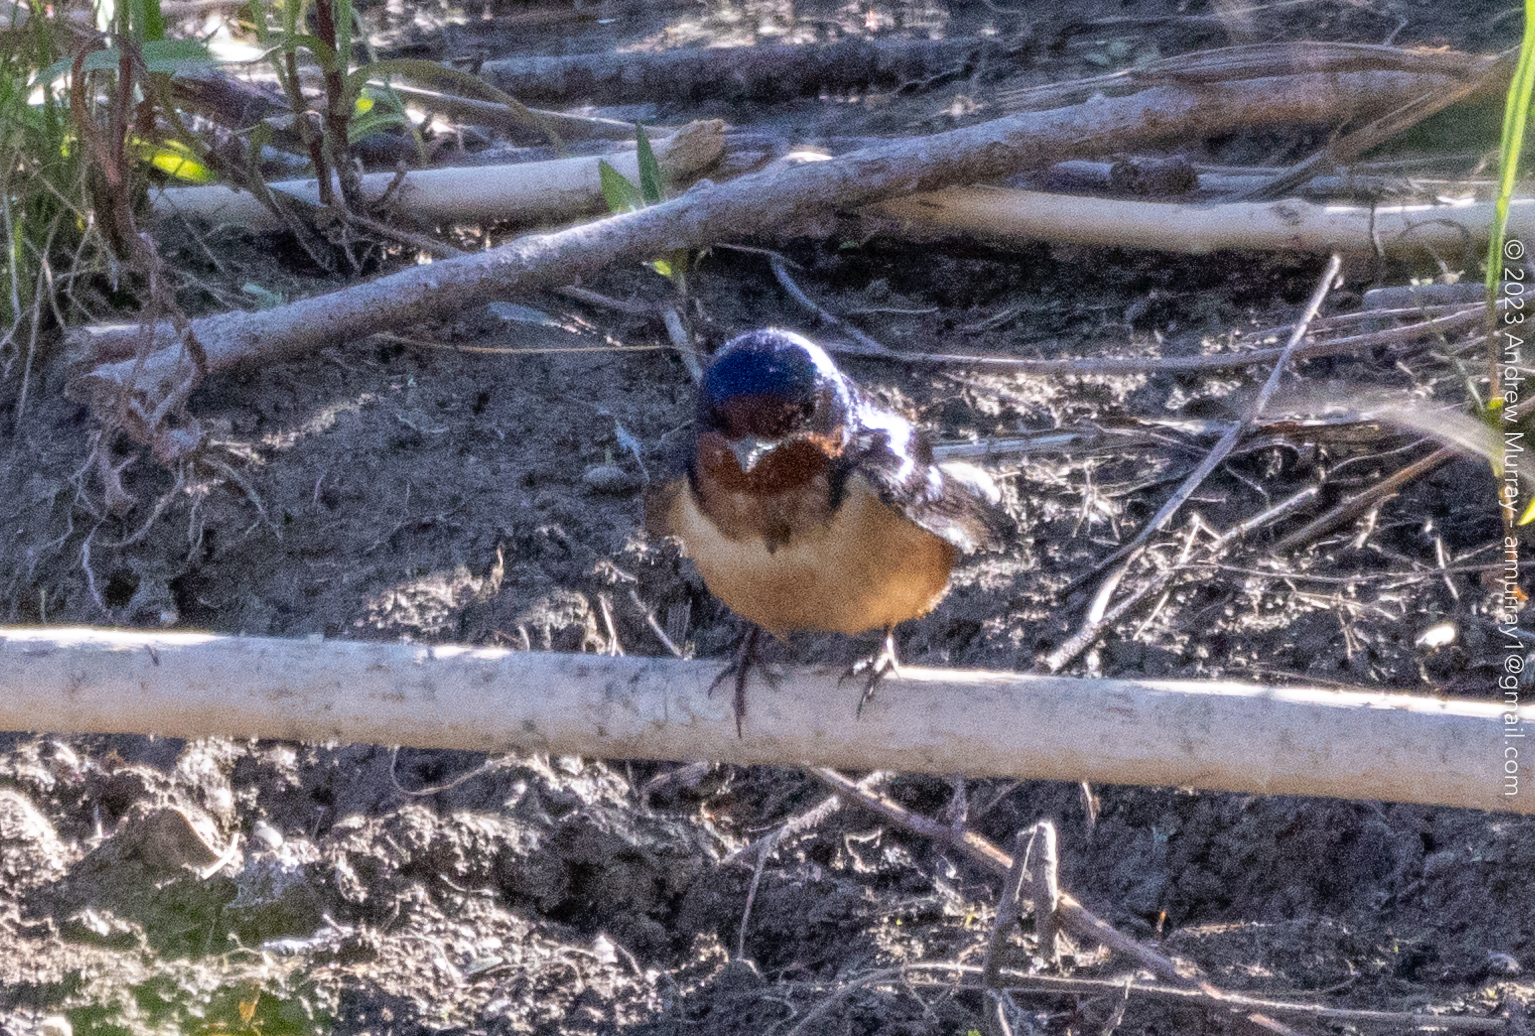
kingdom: Animalia
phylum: Chordata
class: Aves
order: Passeriformes
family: Hirundinidae
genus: Hirundo
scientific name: Hirundo rustica
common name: Barn swallow
